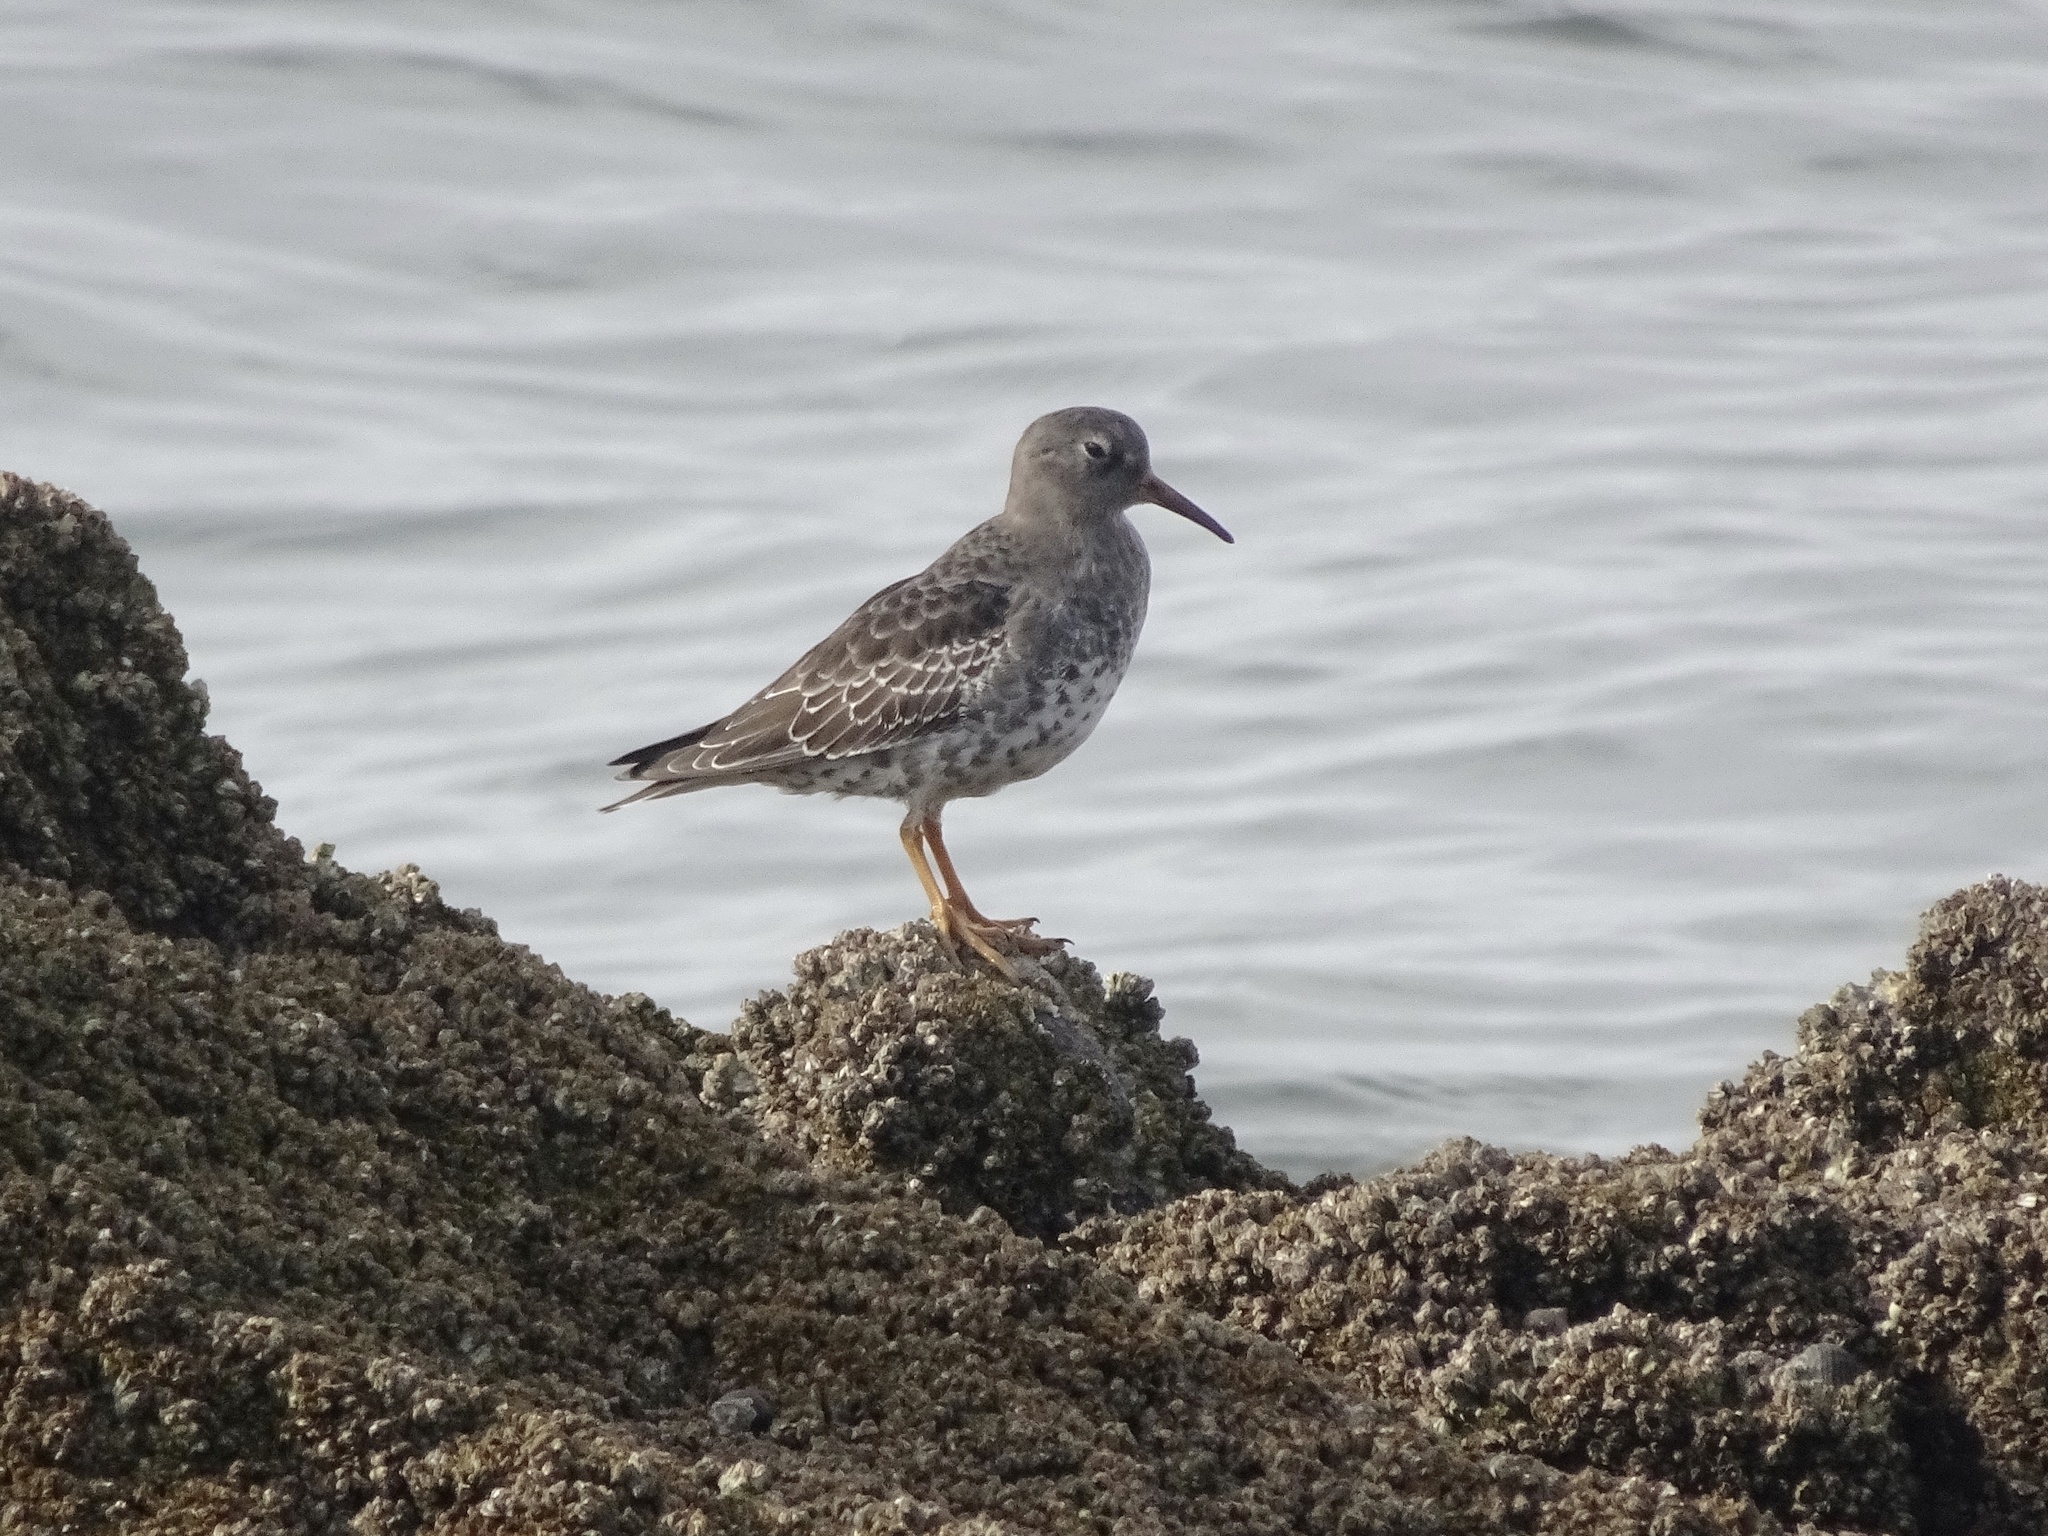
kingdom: Animalia
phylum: Chordata
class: Aves
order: Charadriiformes
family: Scolopacidae
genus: Calidris
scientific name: Calidris maritima
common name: Purple sandpiper
